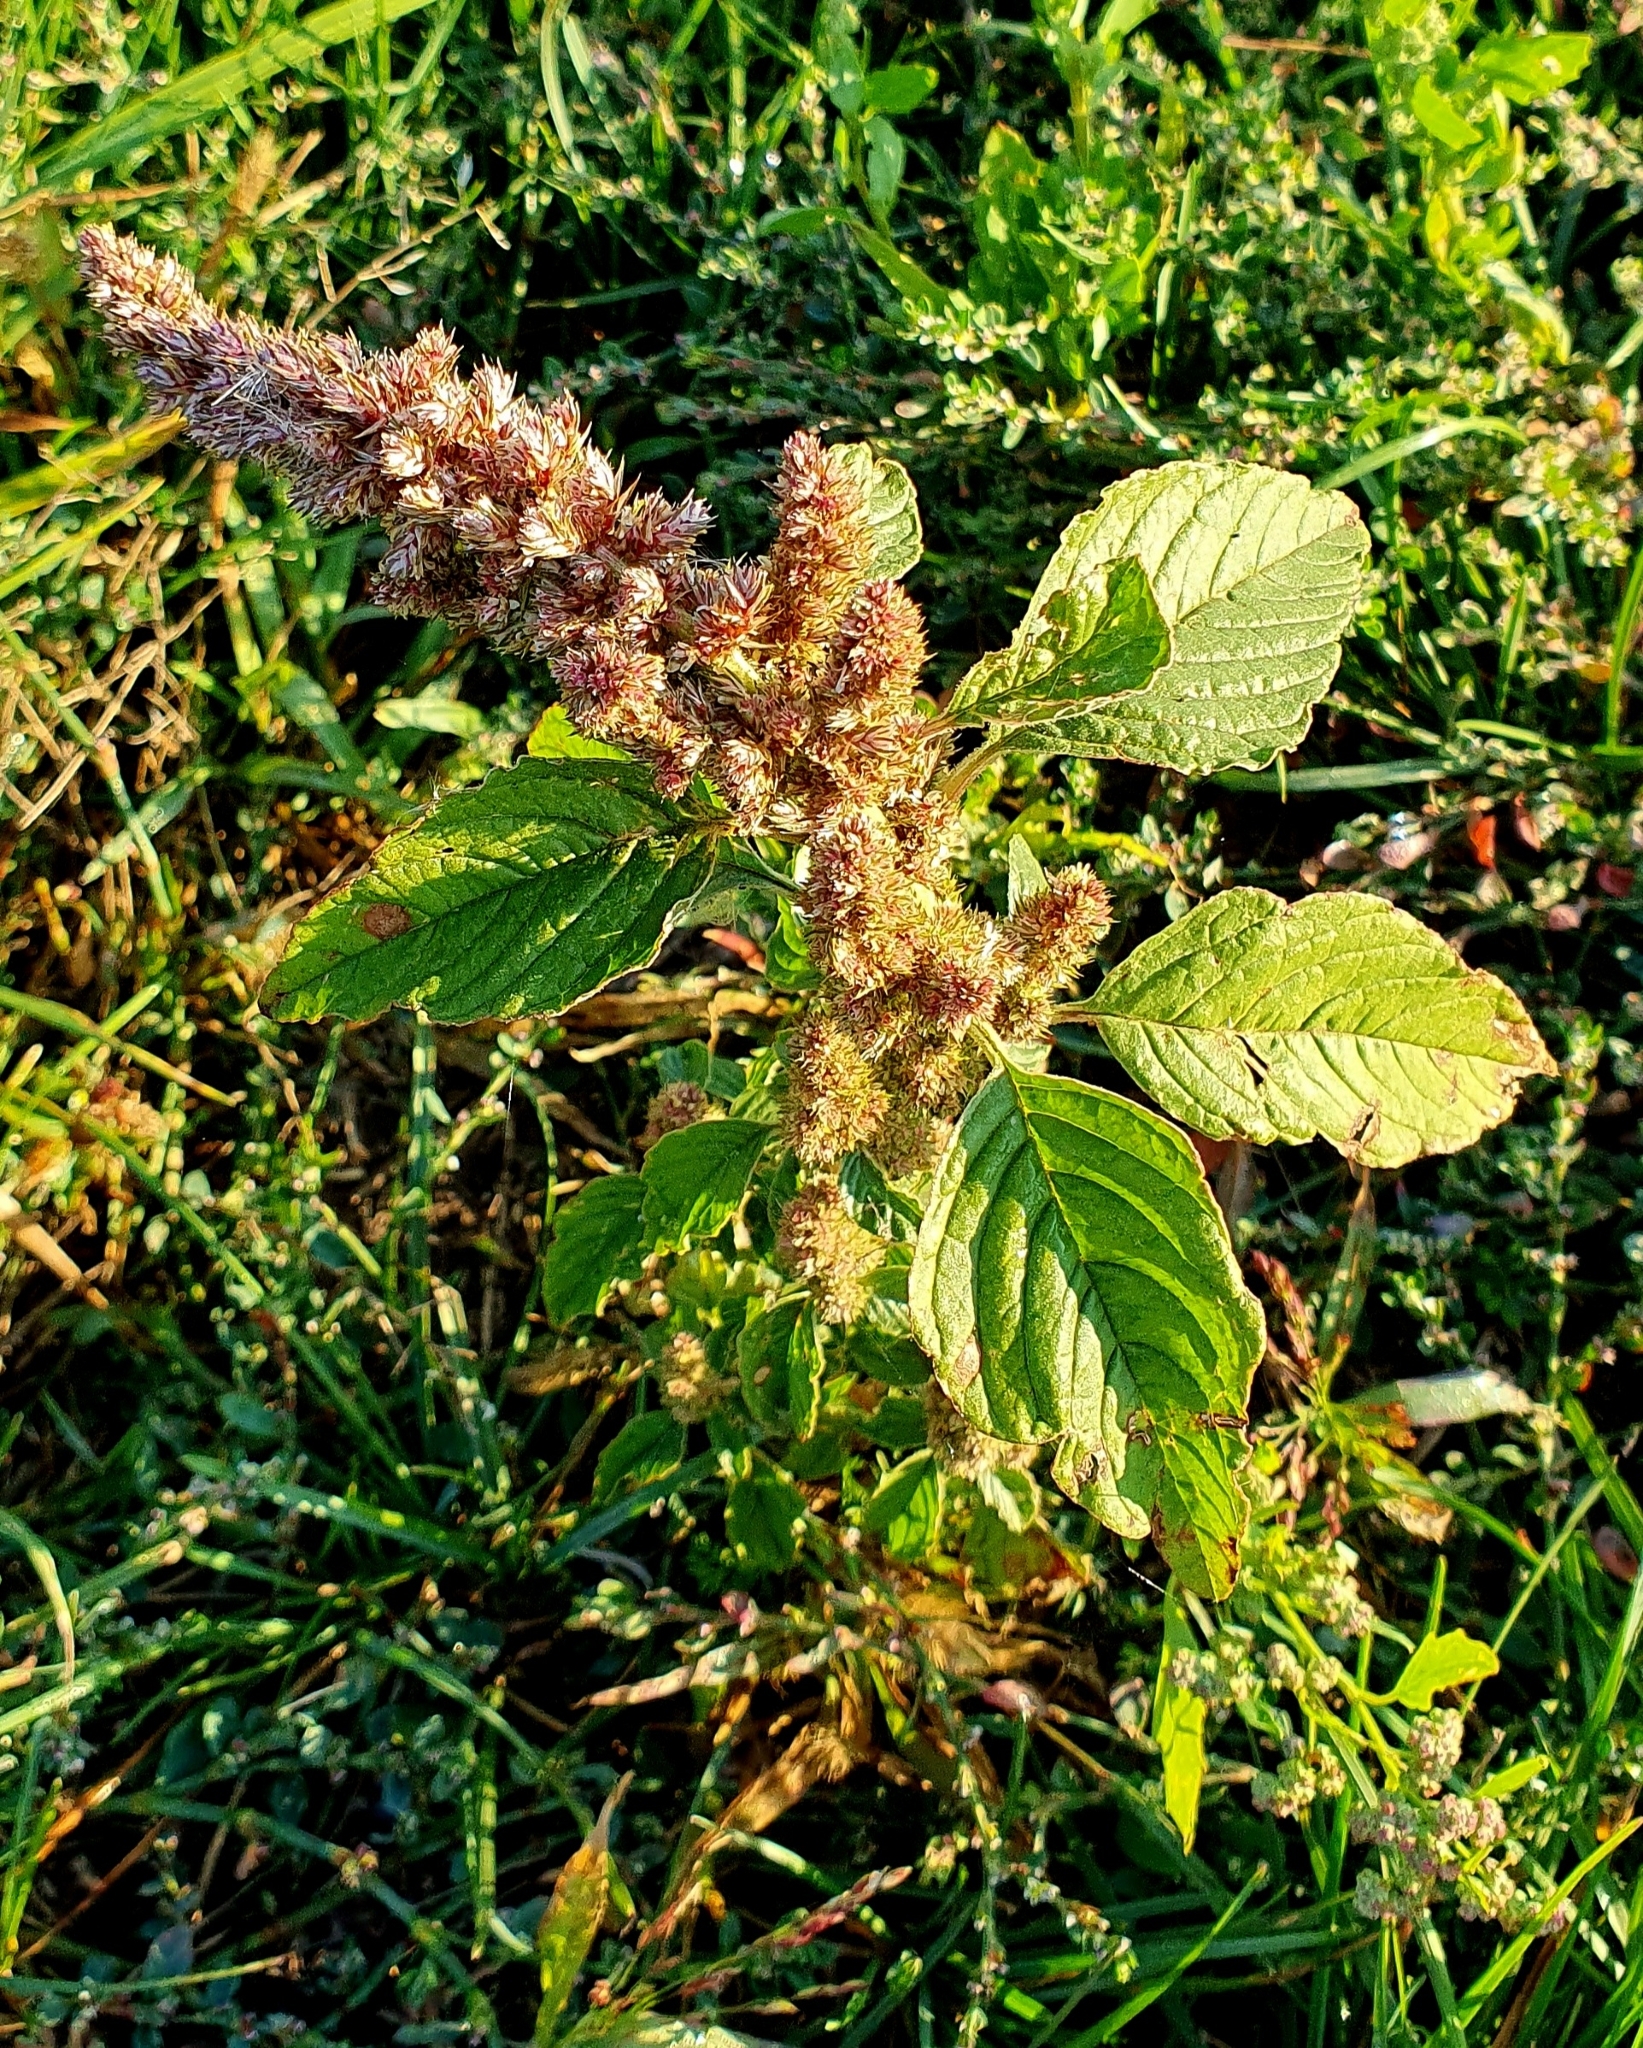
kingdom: Plantae
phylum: Tracheophyta
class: Magnoliopsida
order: Caryophyllales
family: Amaranthaceae
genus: Amaranthus
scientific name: Amaranthus retroflexus
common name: Redroot amaranth
